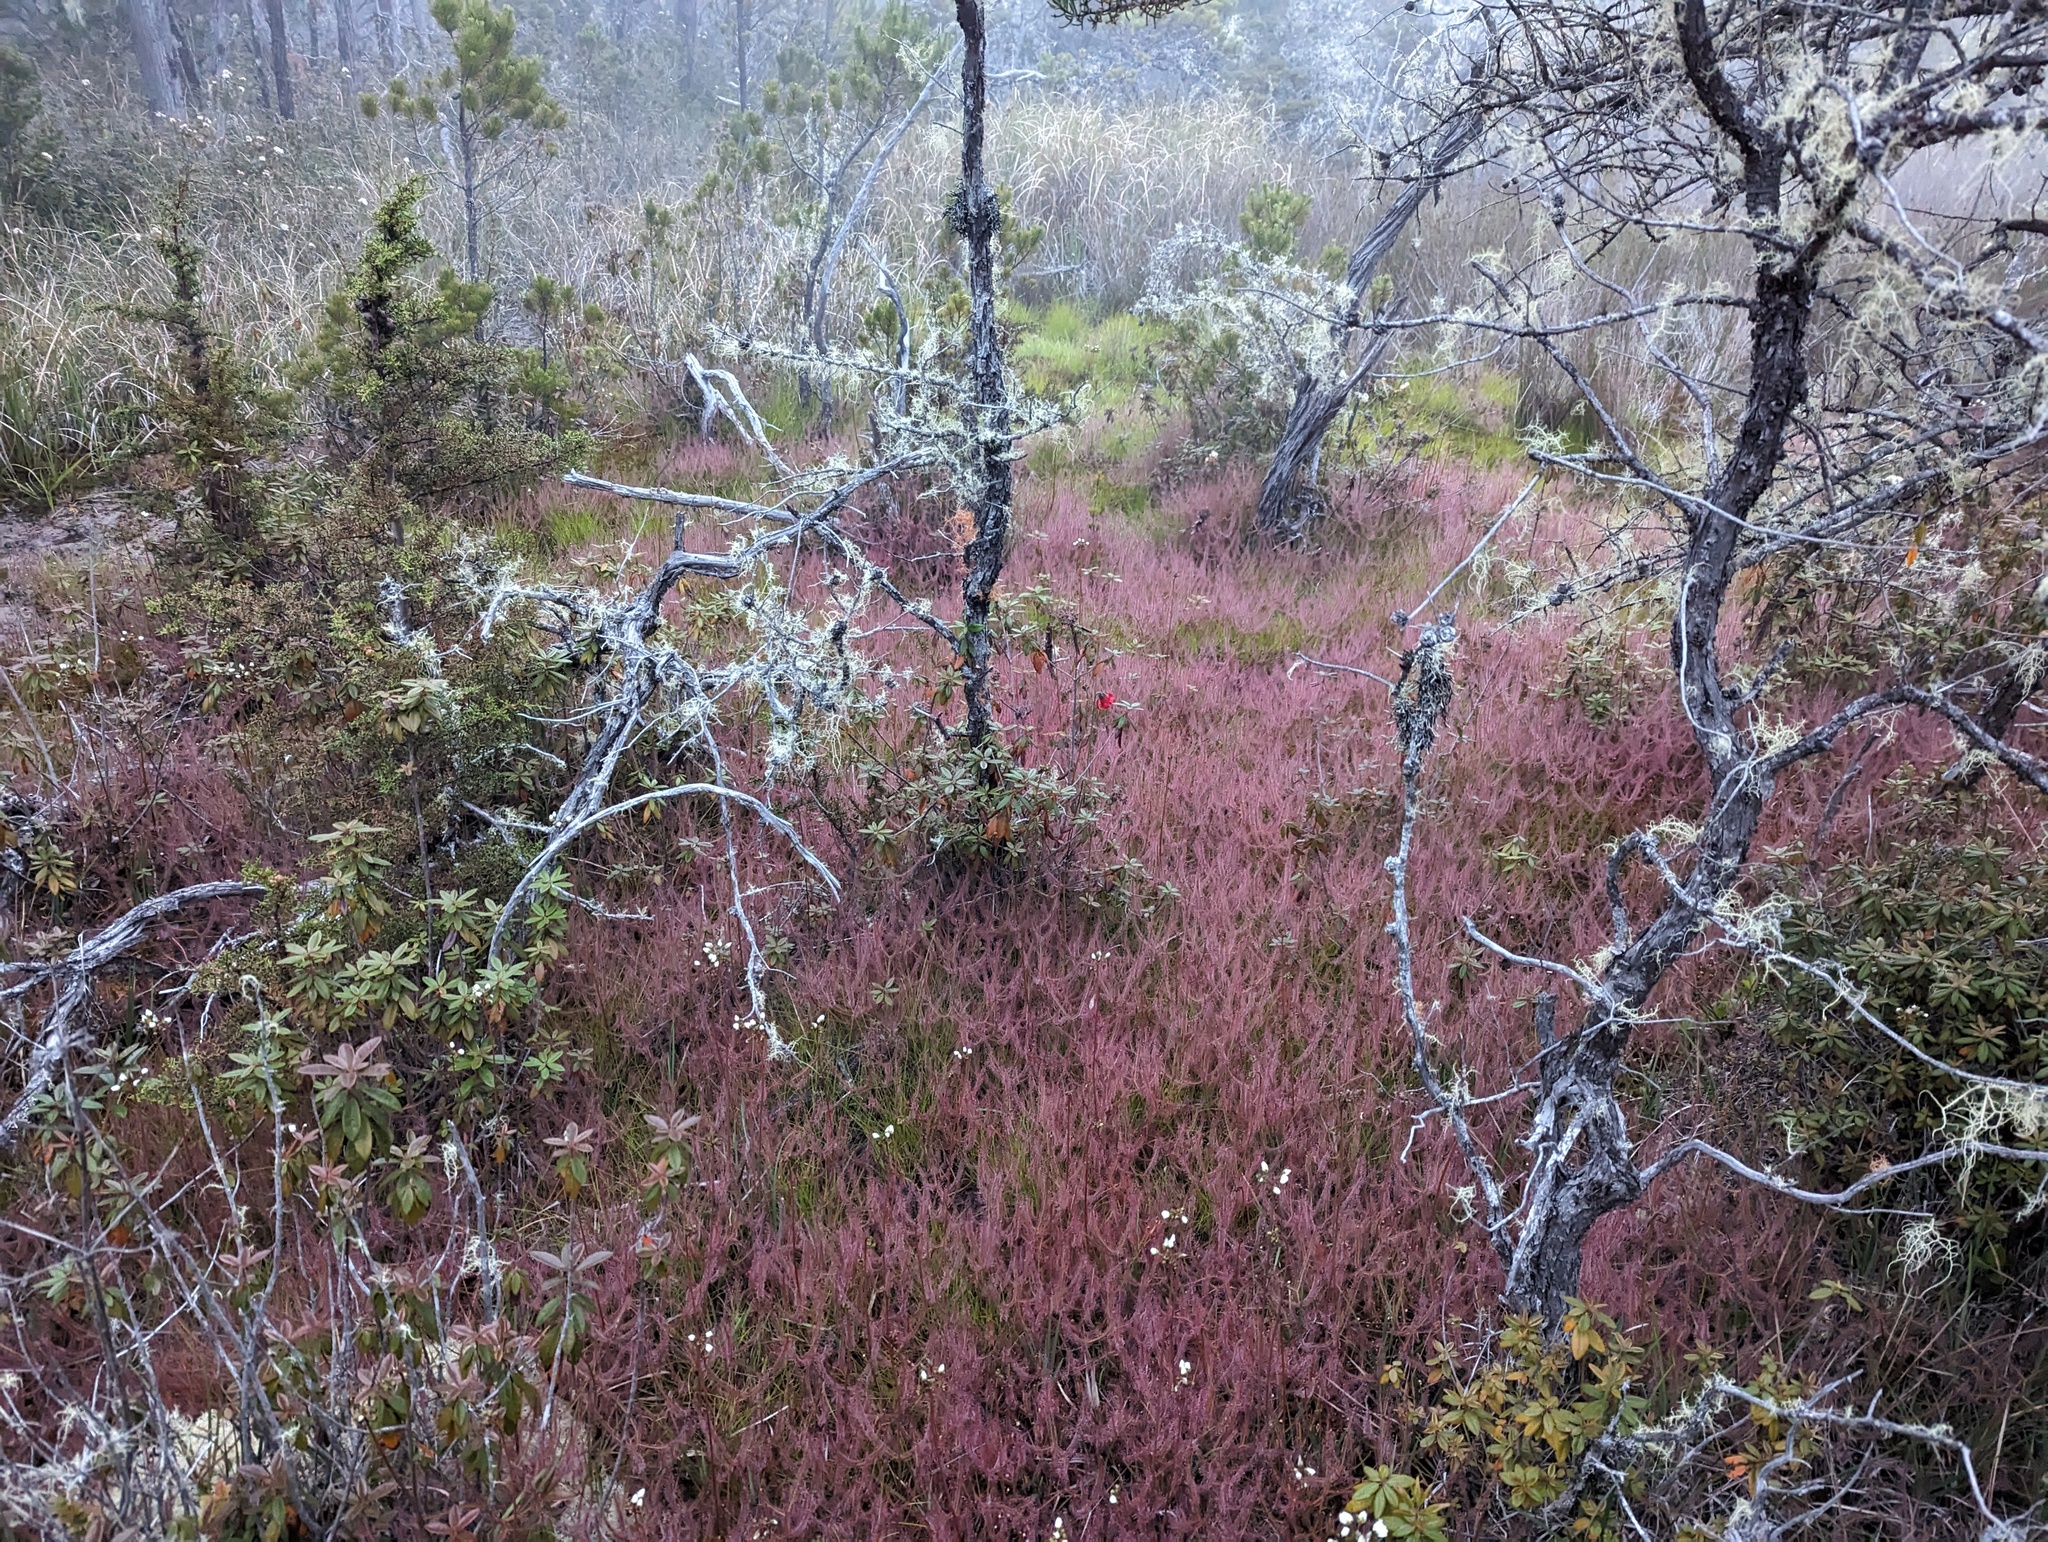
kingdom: Plantae
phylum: Tracheophyta
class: Magnoliopsida
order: Caryophyllales
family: Droseraceae
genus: Drosera
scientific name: Drosera binata
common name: Forked sundew
